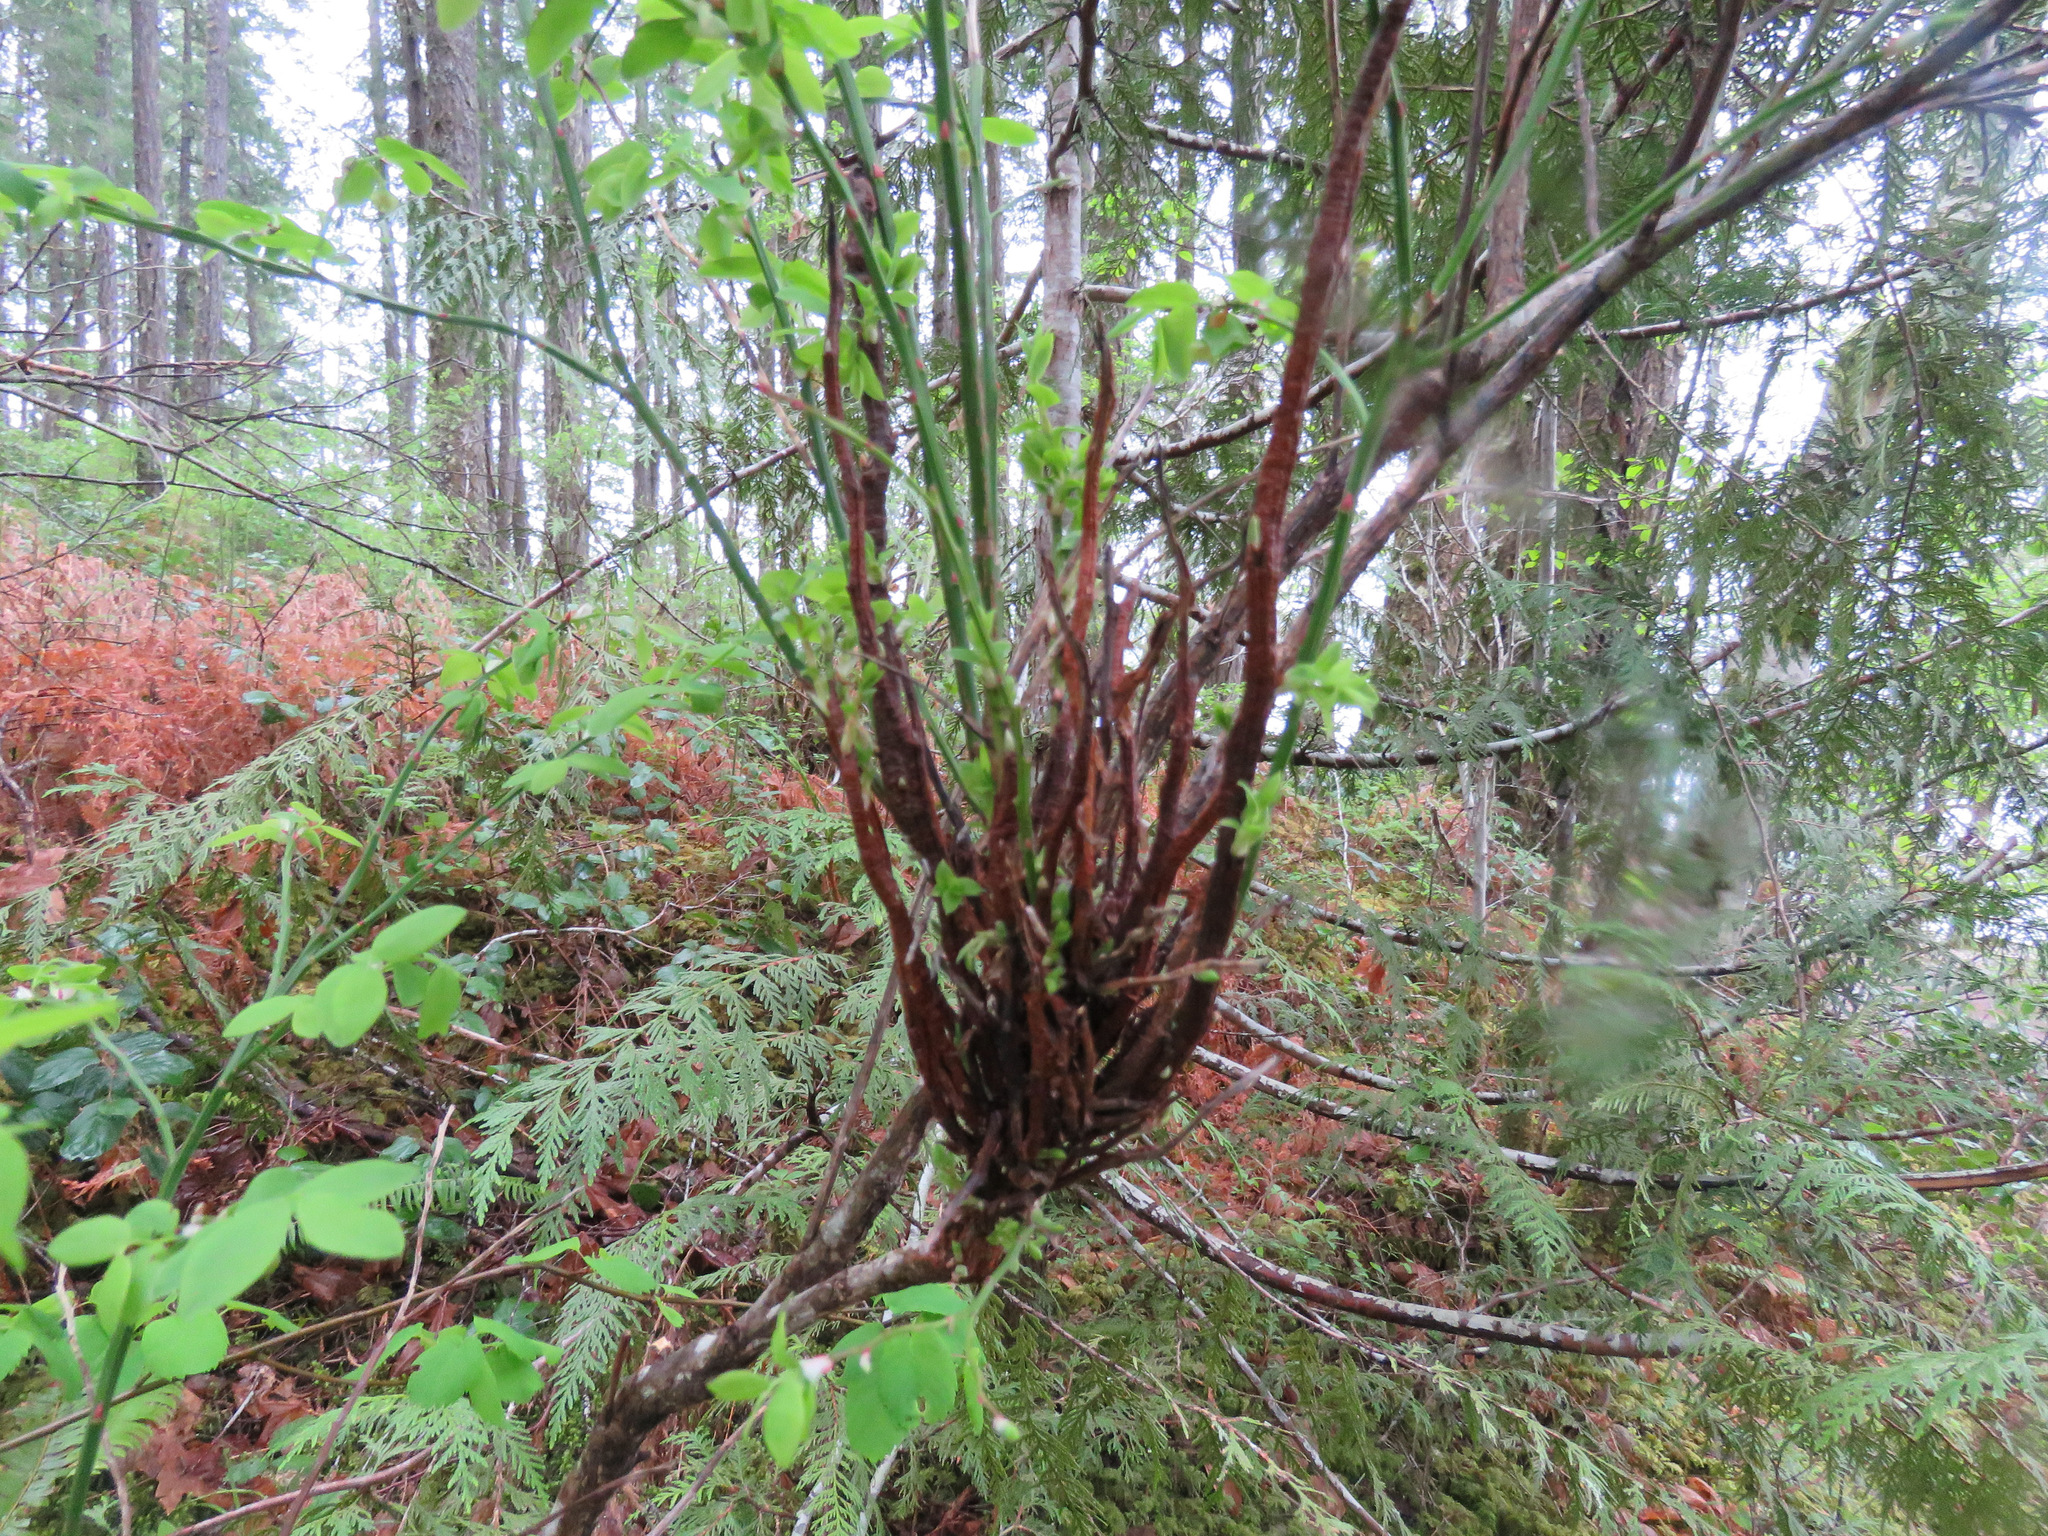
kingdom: Fungi
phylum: Basidiomycota
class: Pucciniomycetes
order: Pucciniales
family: Pucciniastraceae
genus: Calyptospora
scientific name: Calyptospora
